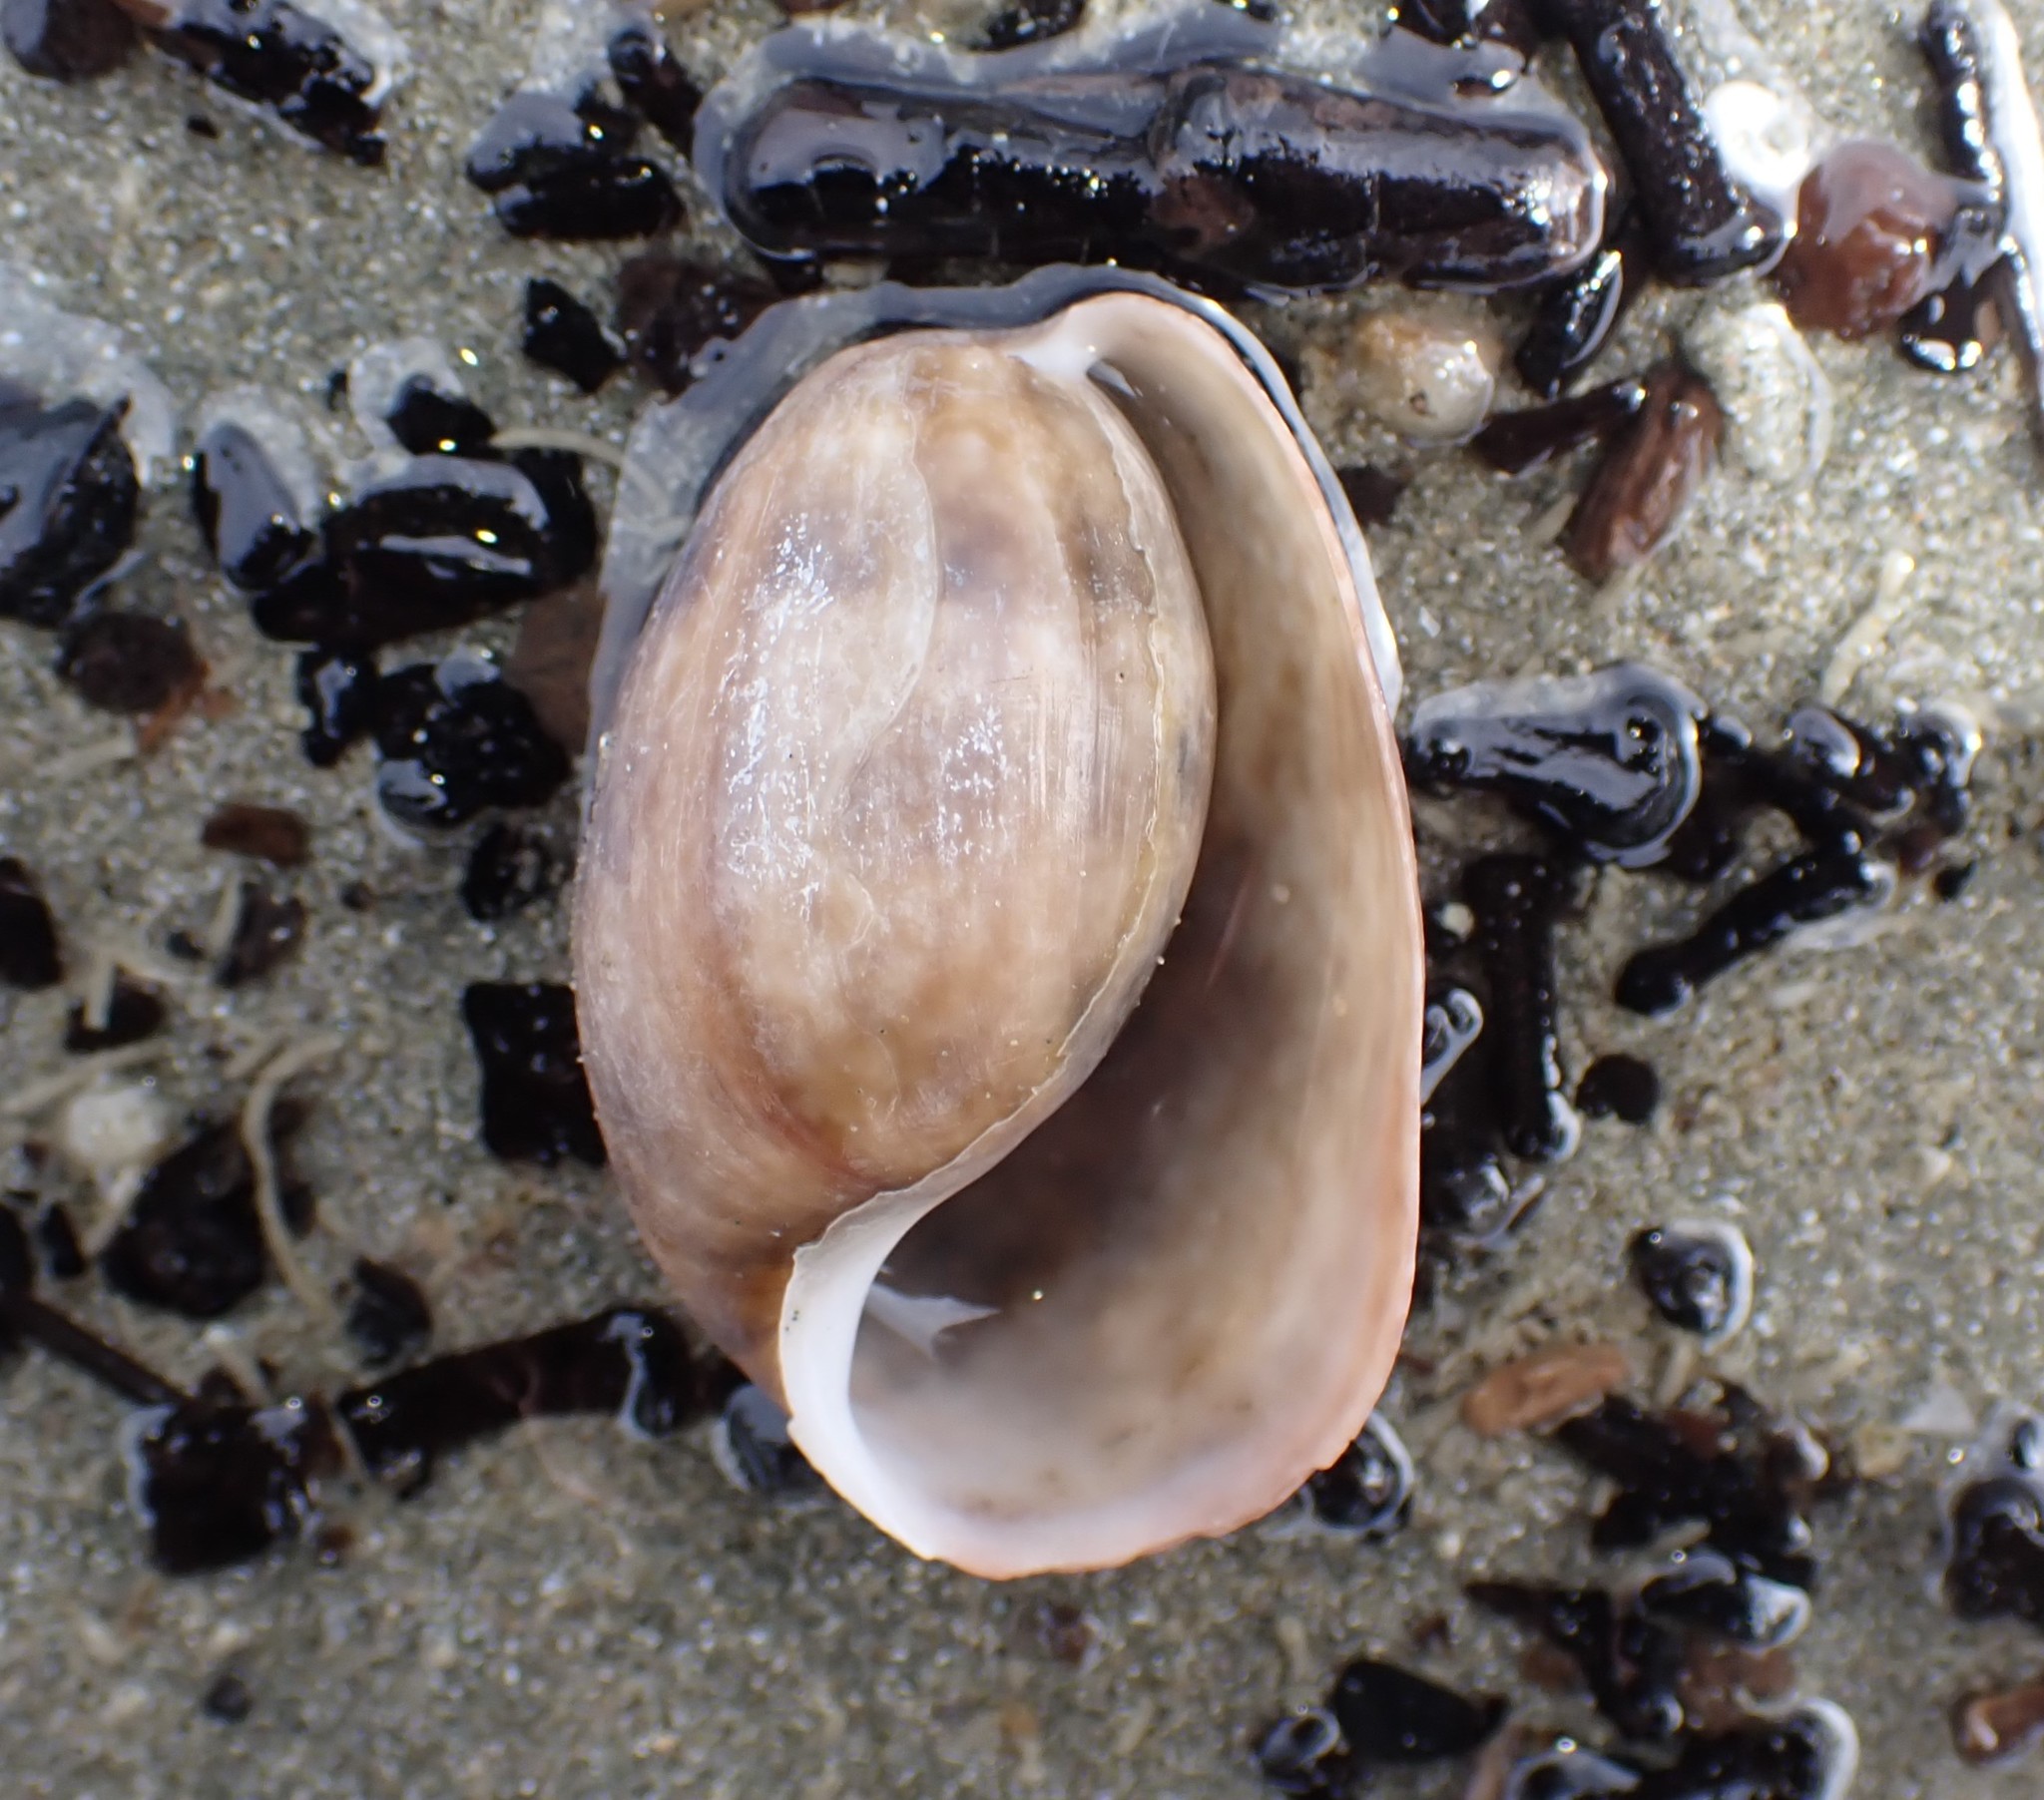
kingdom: Animalia
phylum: Mollusca
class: Gastropoda
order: Cephalaspidea
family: Bullidae
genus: Bulla
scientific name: Bulla quoyii
